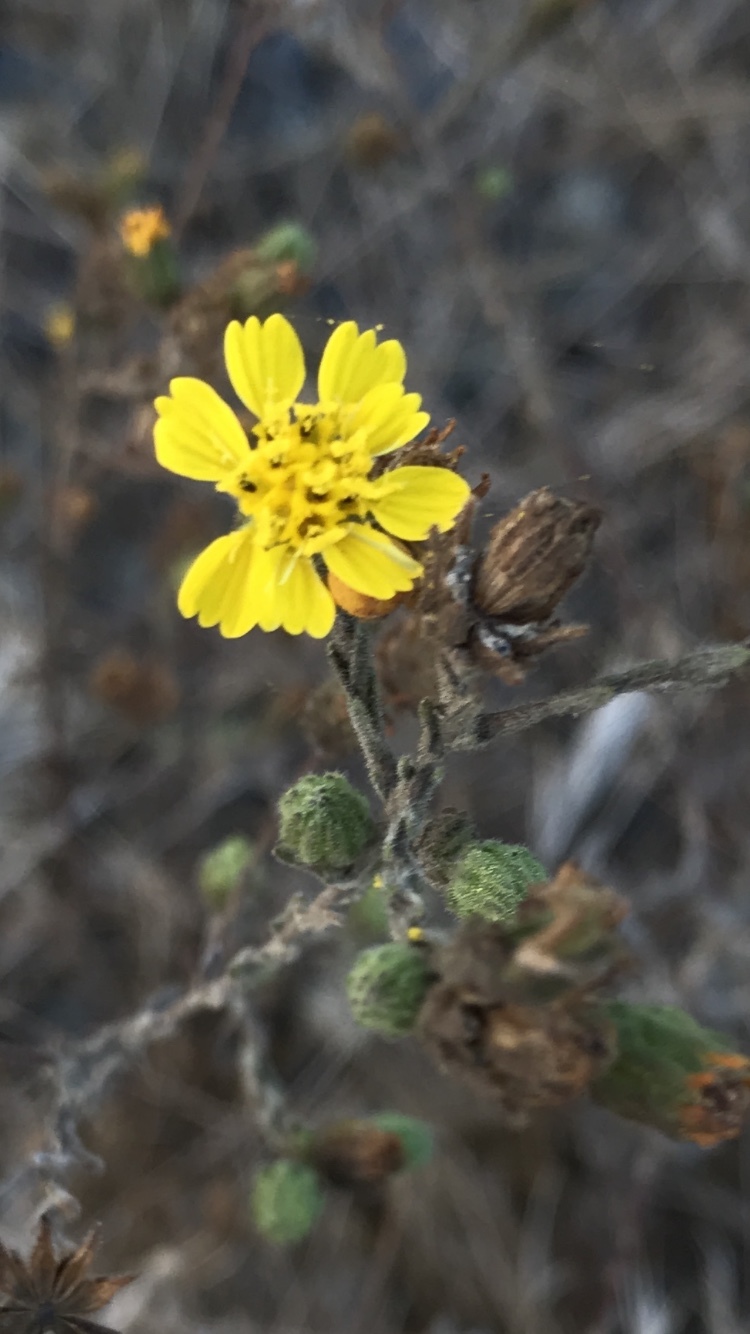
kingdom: Plantae
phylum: Tracheophyta
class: Magnoliopsida
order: Asterales
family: Asteraceae
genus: Deinandra
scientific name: Deinandra paniculata
